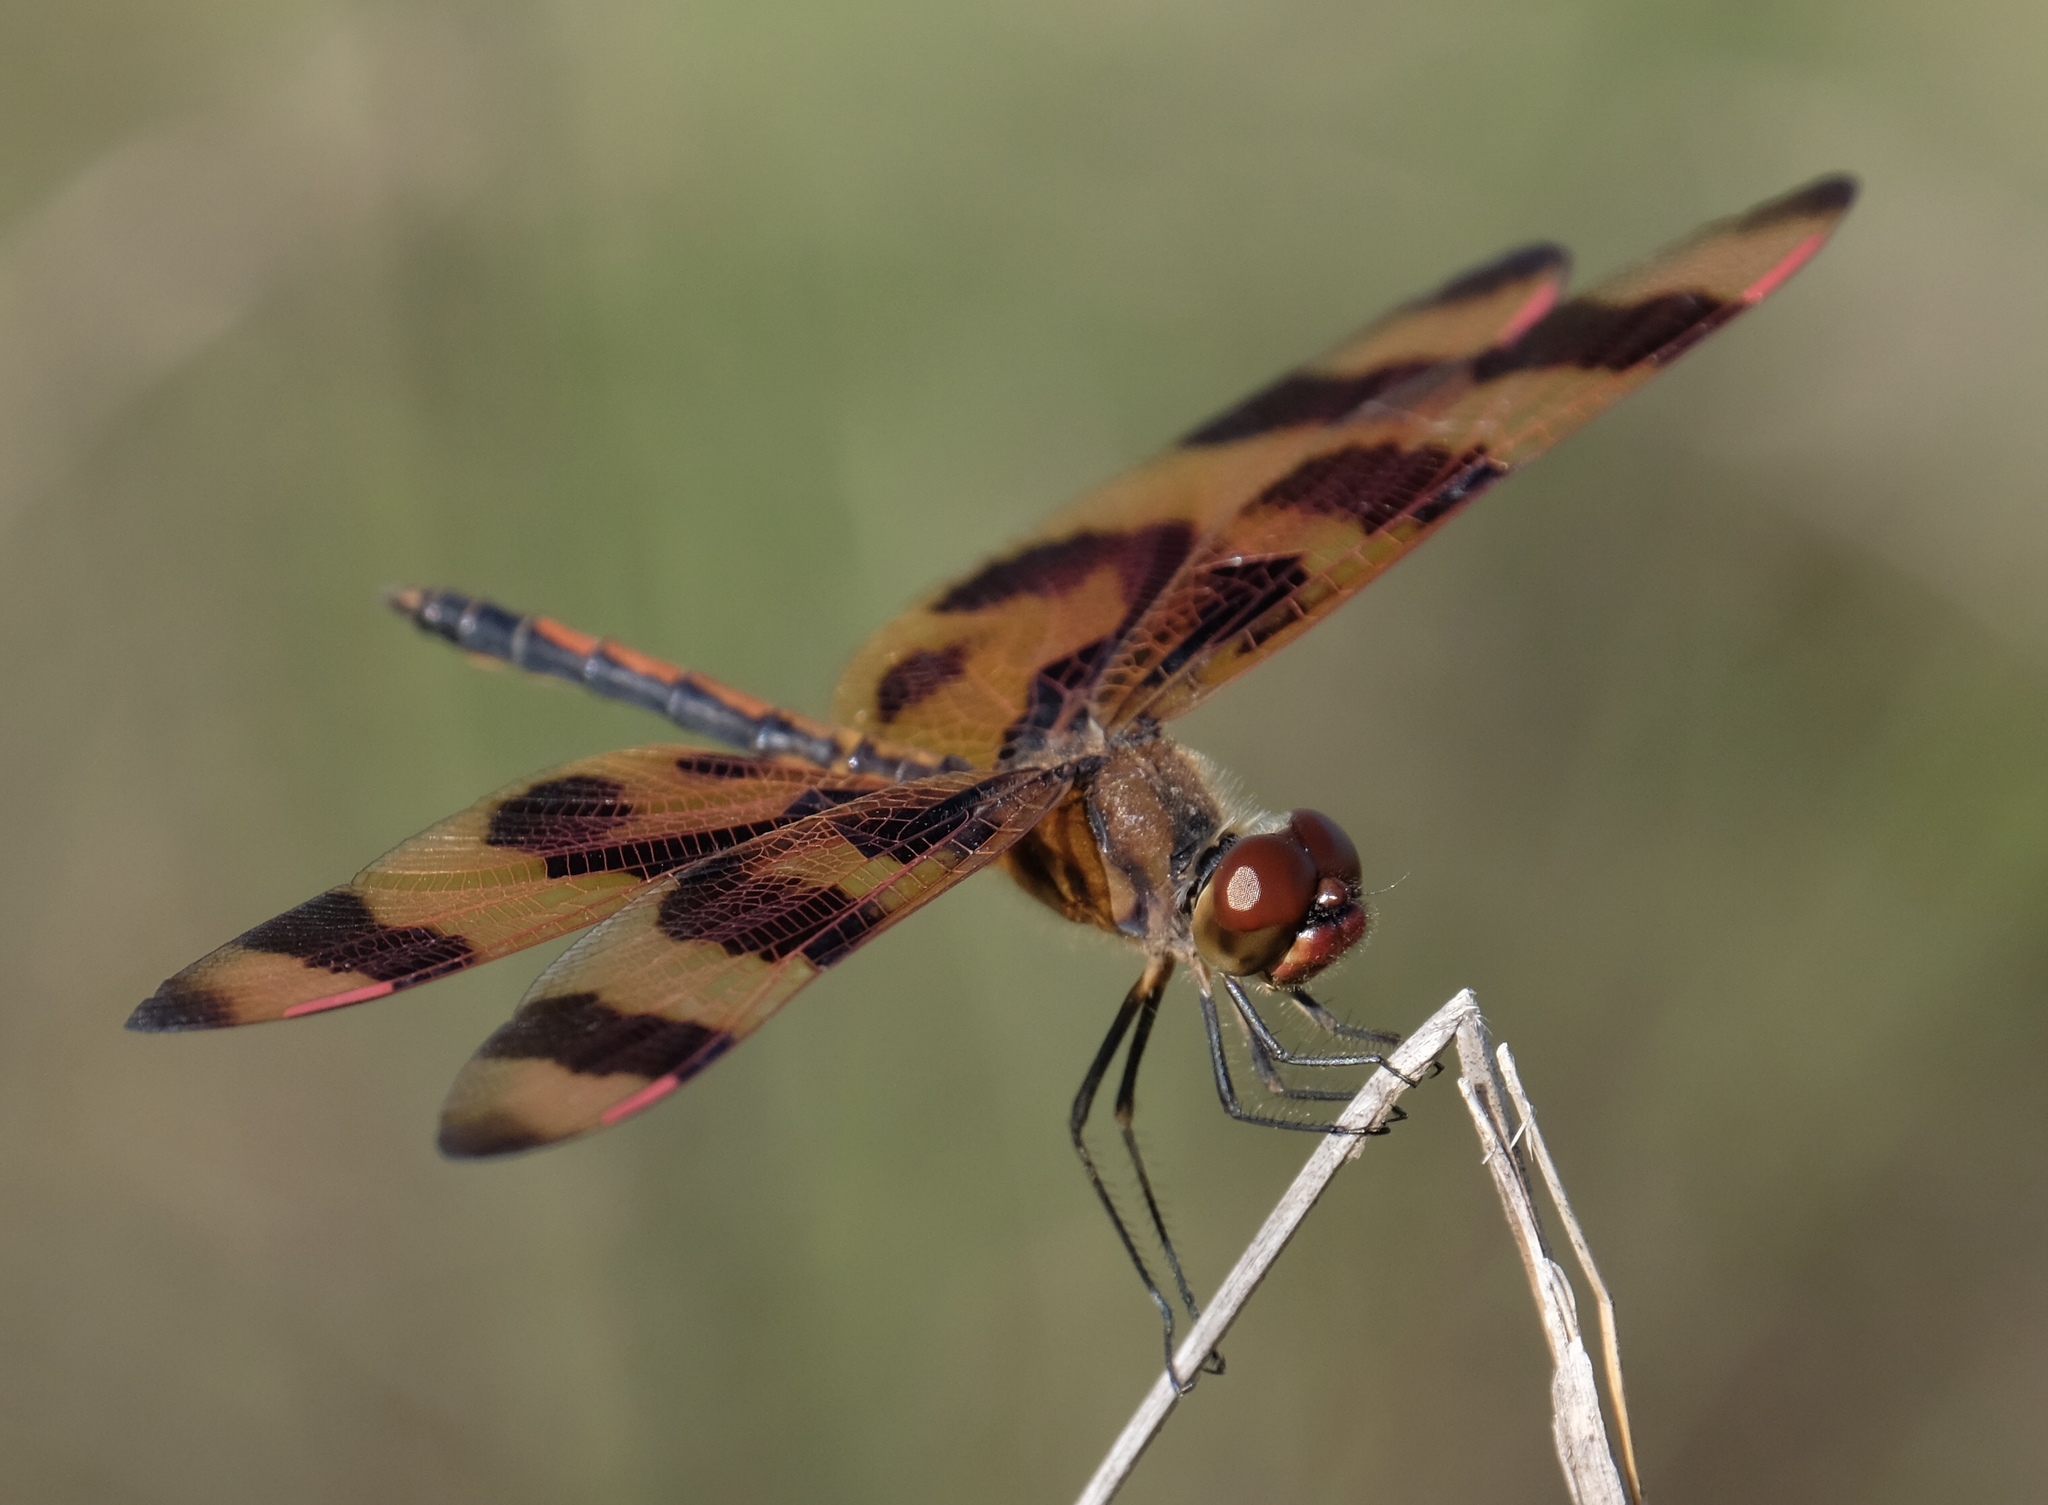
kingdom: Animalia
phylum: Arthropoda
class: Insecta
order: Odonata
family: Libellulidae
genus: Celithemis
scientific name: Celithemis eponina
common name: Halloween pennant
